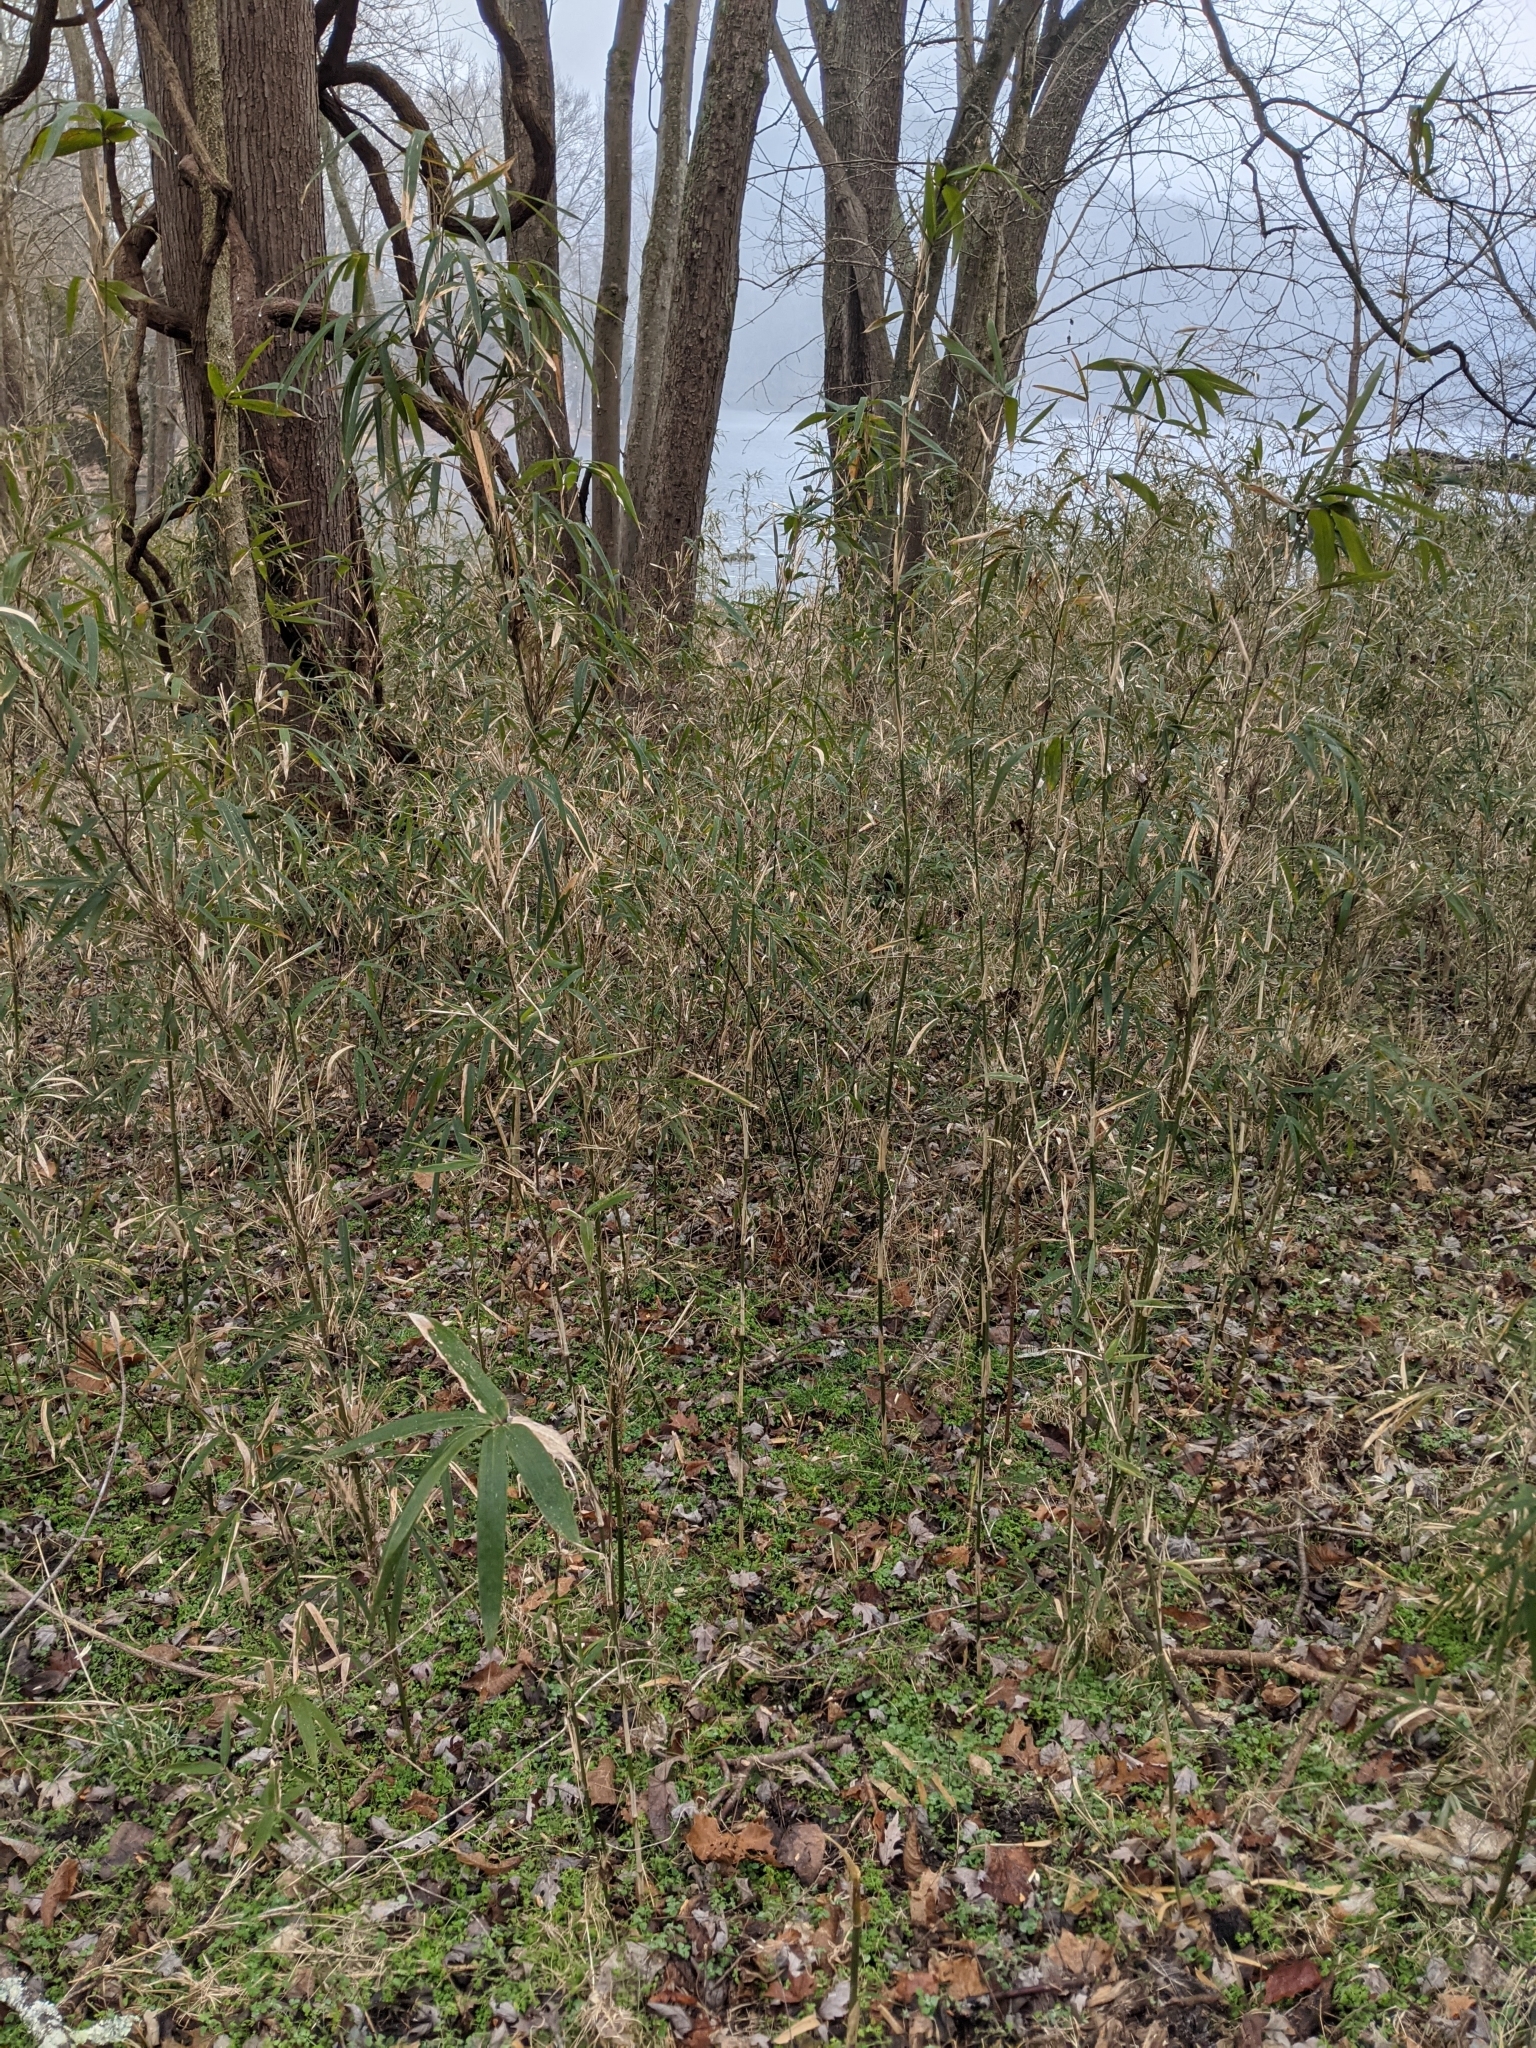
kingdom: Plantae
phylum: Tracheophyta
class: Liliopsida
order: Poales
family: Poaceae
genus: Arundinaria
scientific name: Arundinaria gigantea
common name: Giant cane
